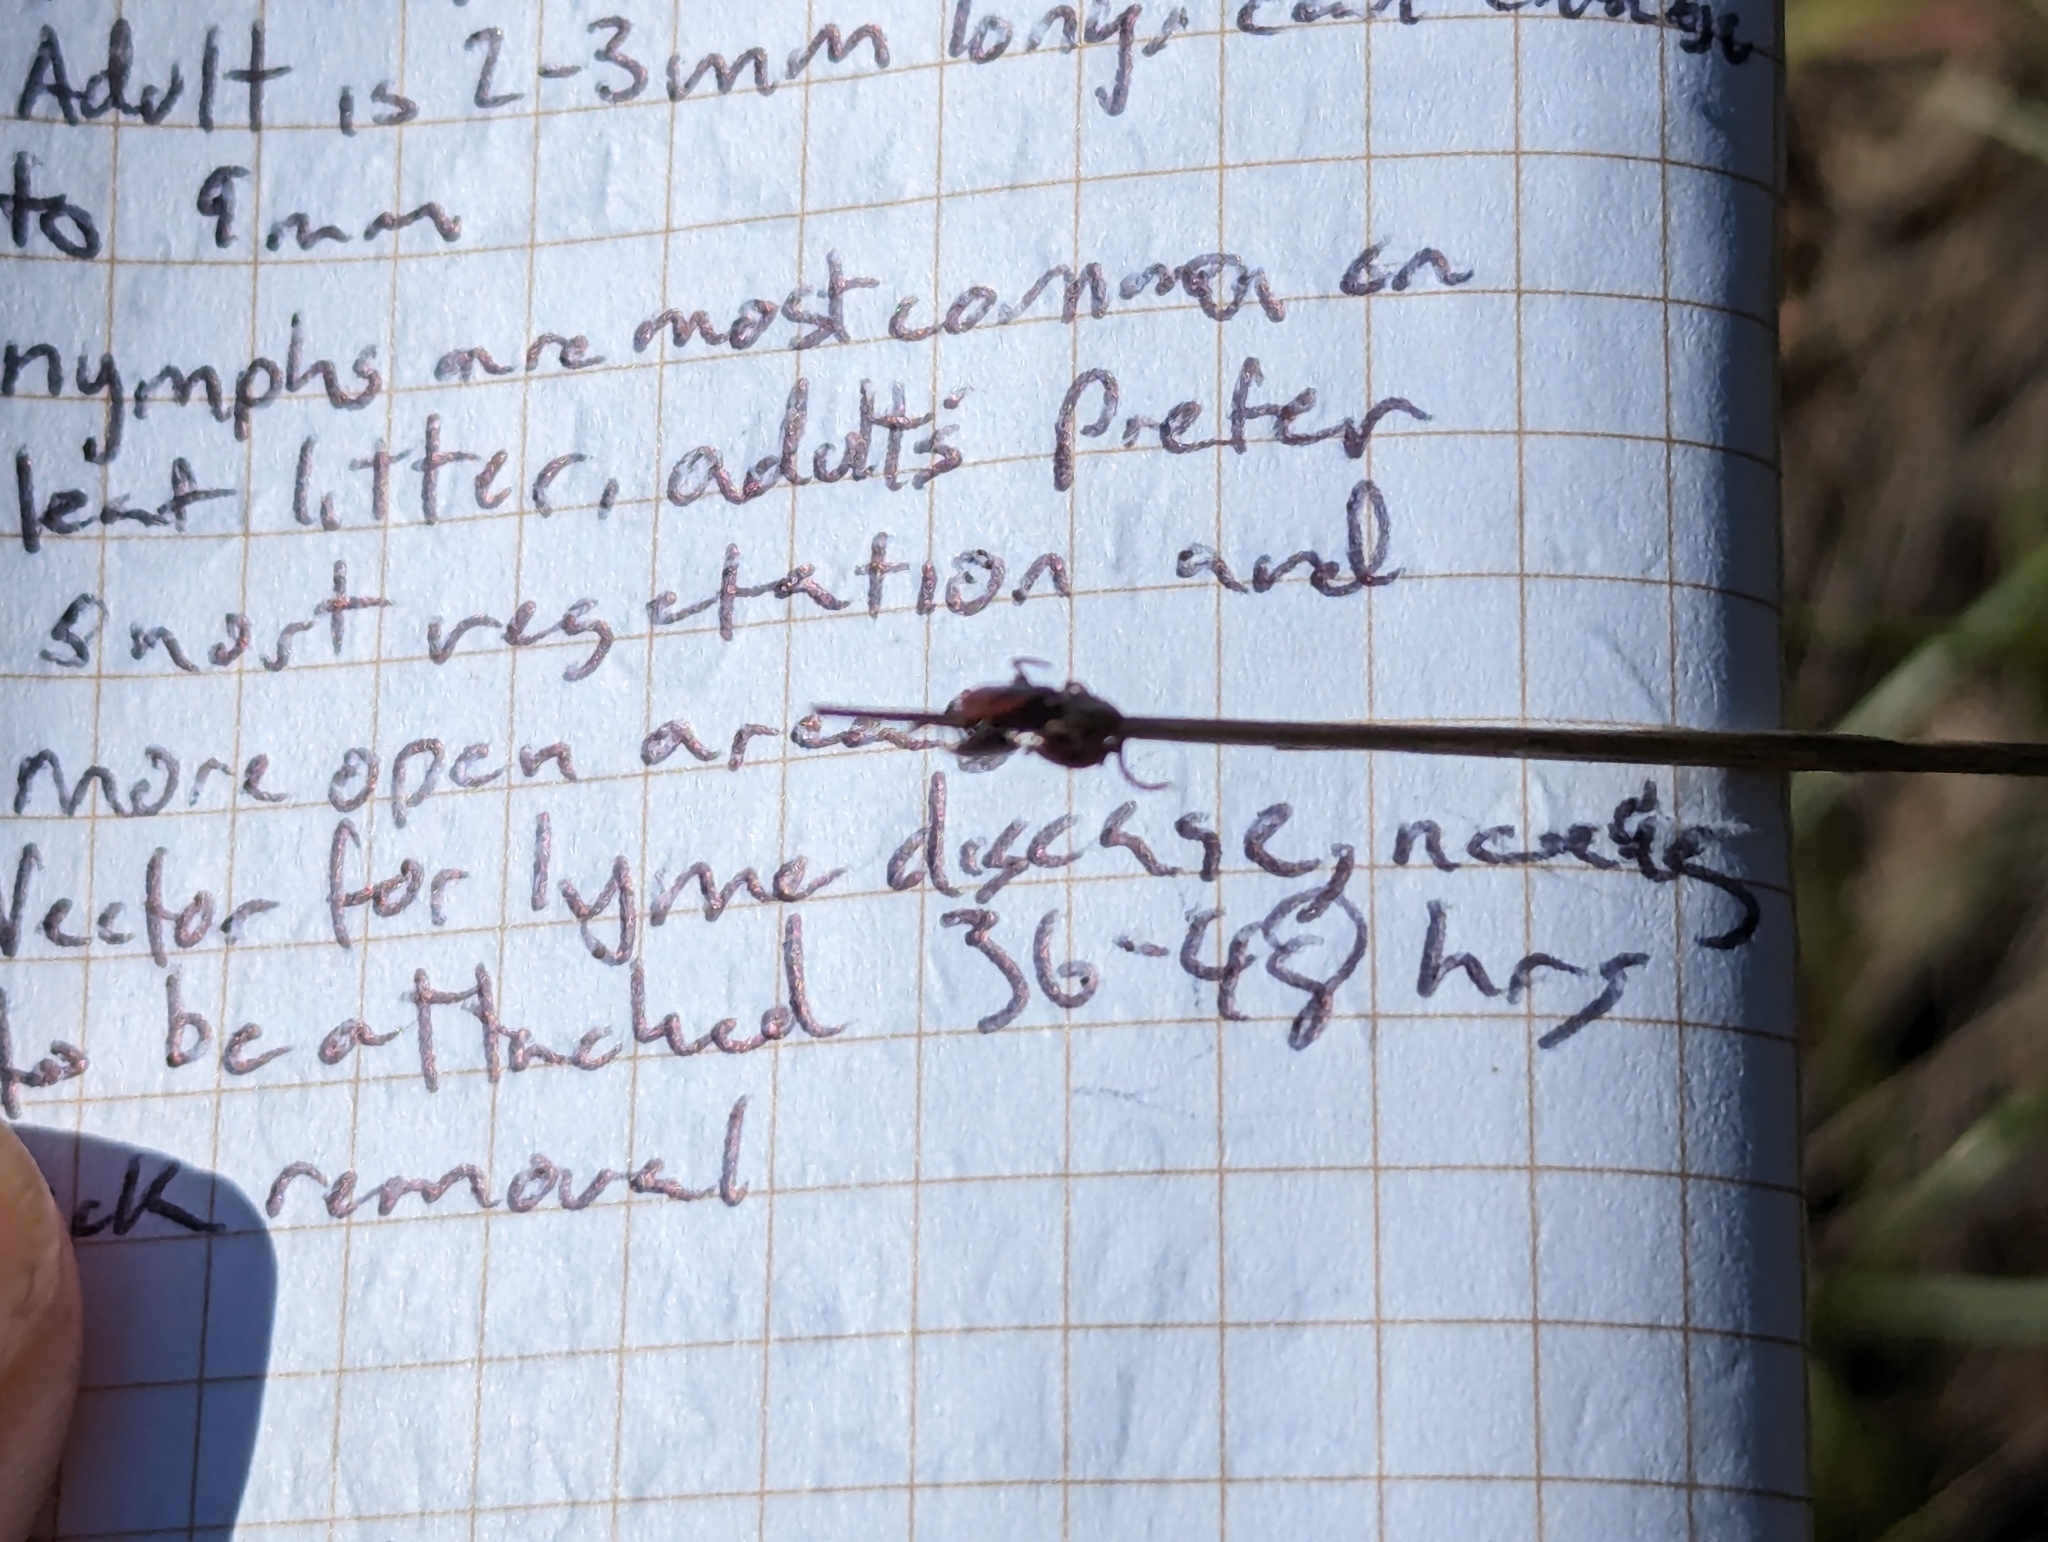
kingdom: Animalia
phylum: Arthropoda
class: Arachnida
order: Ixodida
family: Ixodidae
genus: Ixodes
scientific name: Ixodes pacificus
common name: California black-legged tick
